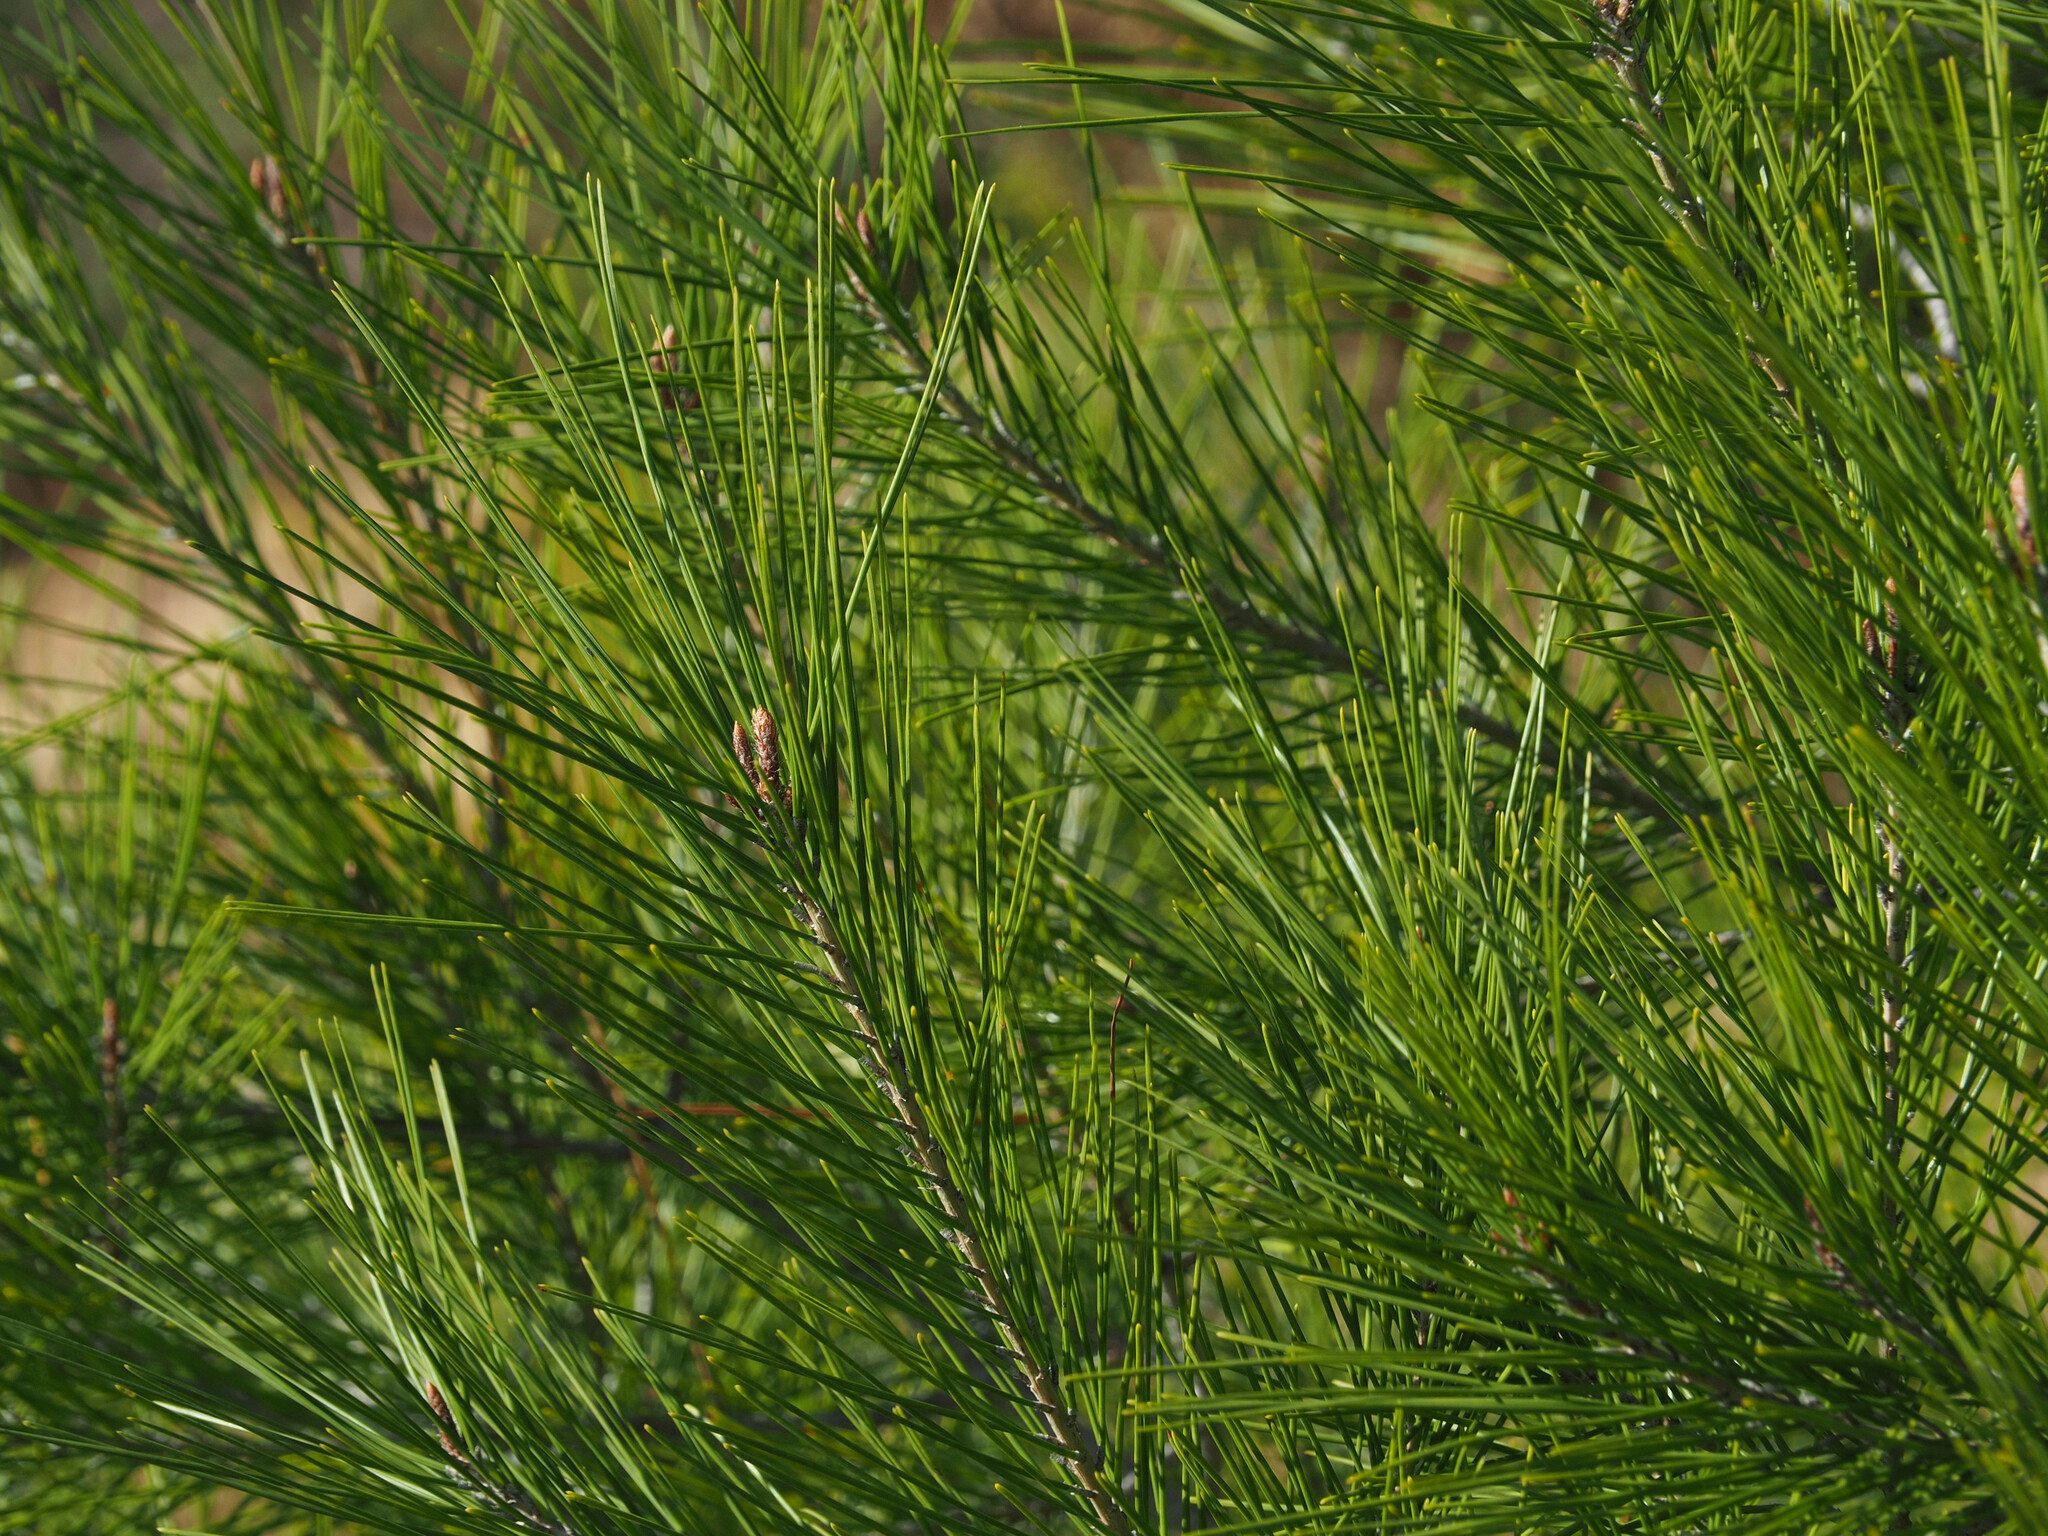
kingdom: Plantae
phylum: Tracheophyta
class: Pinopsida
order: Pinales
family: Pinaceae
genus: Pinus
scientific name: Pinus halepensis
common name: Aleppo pine
